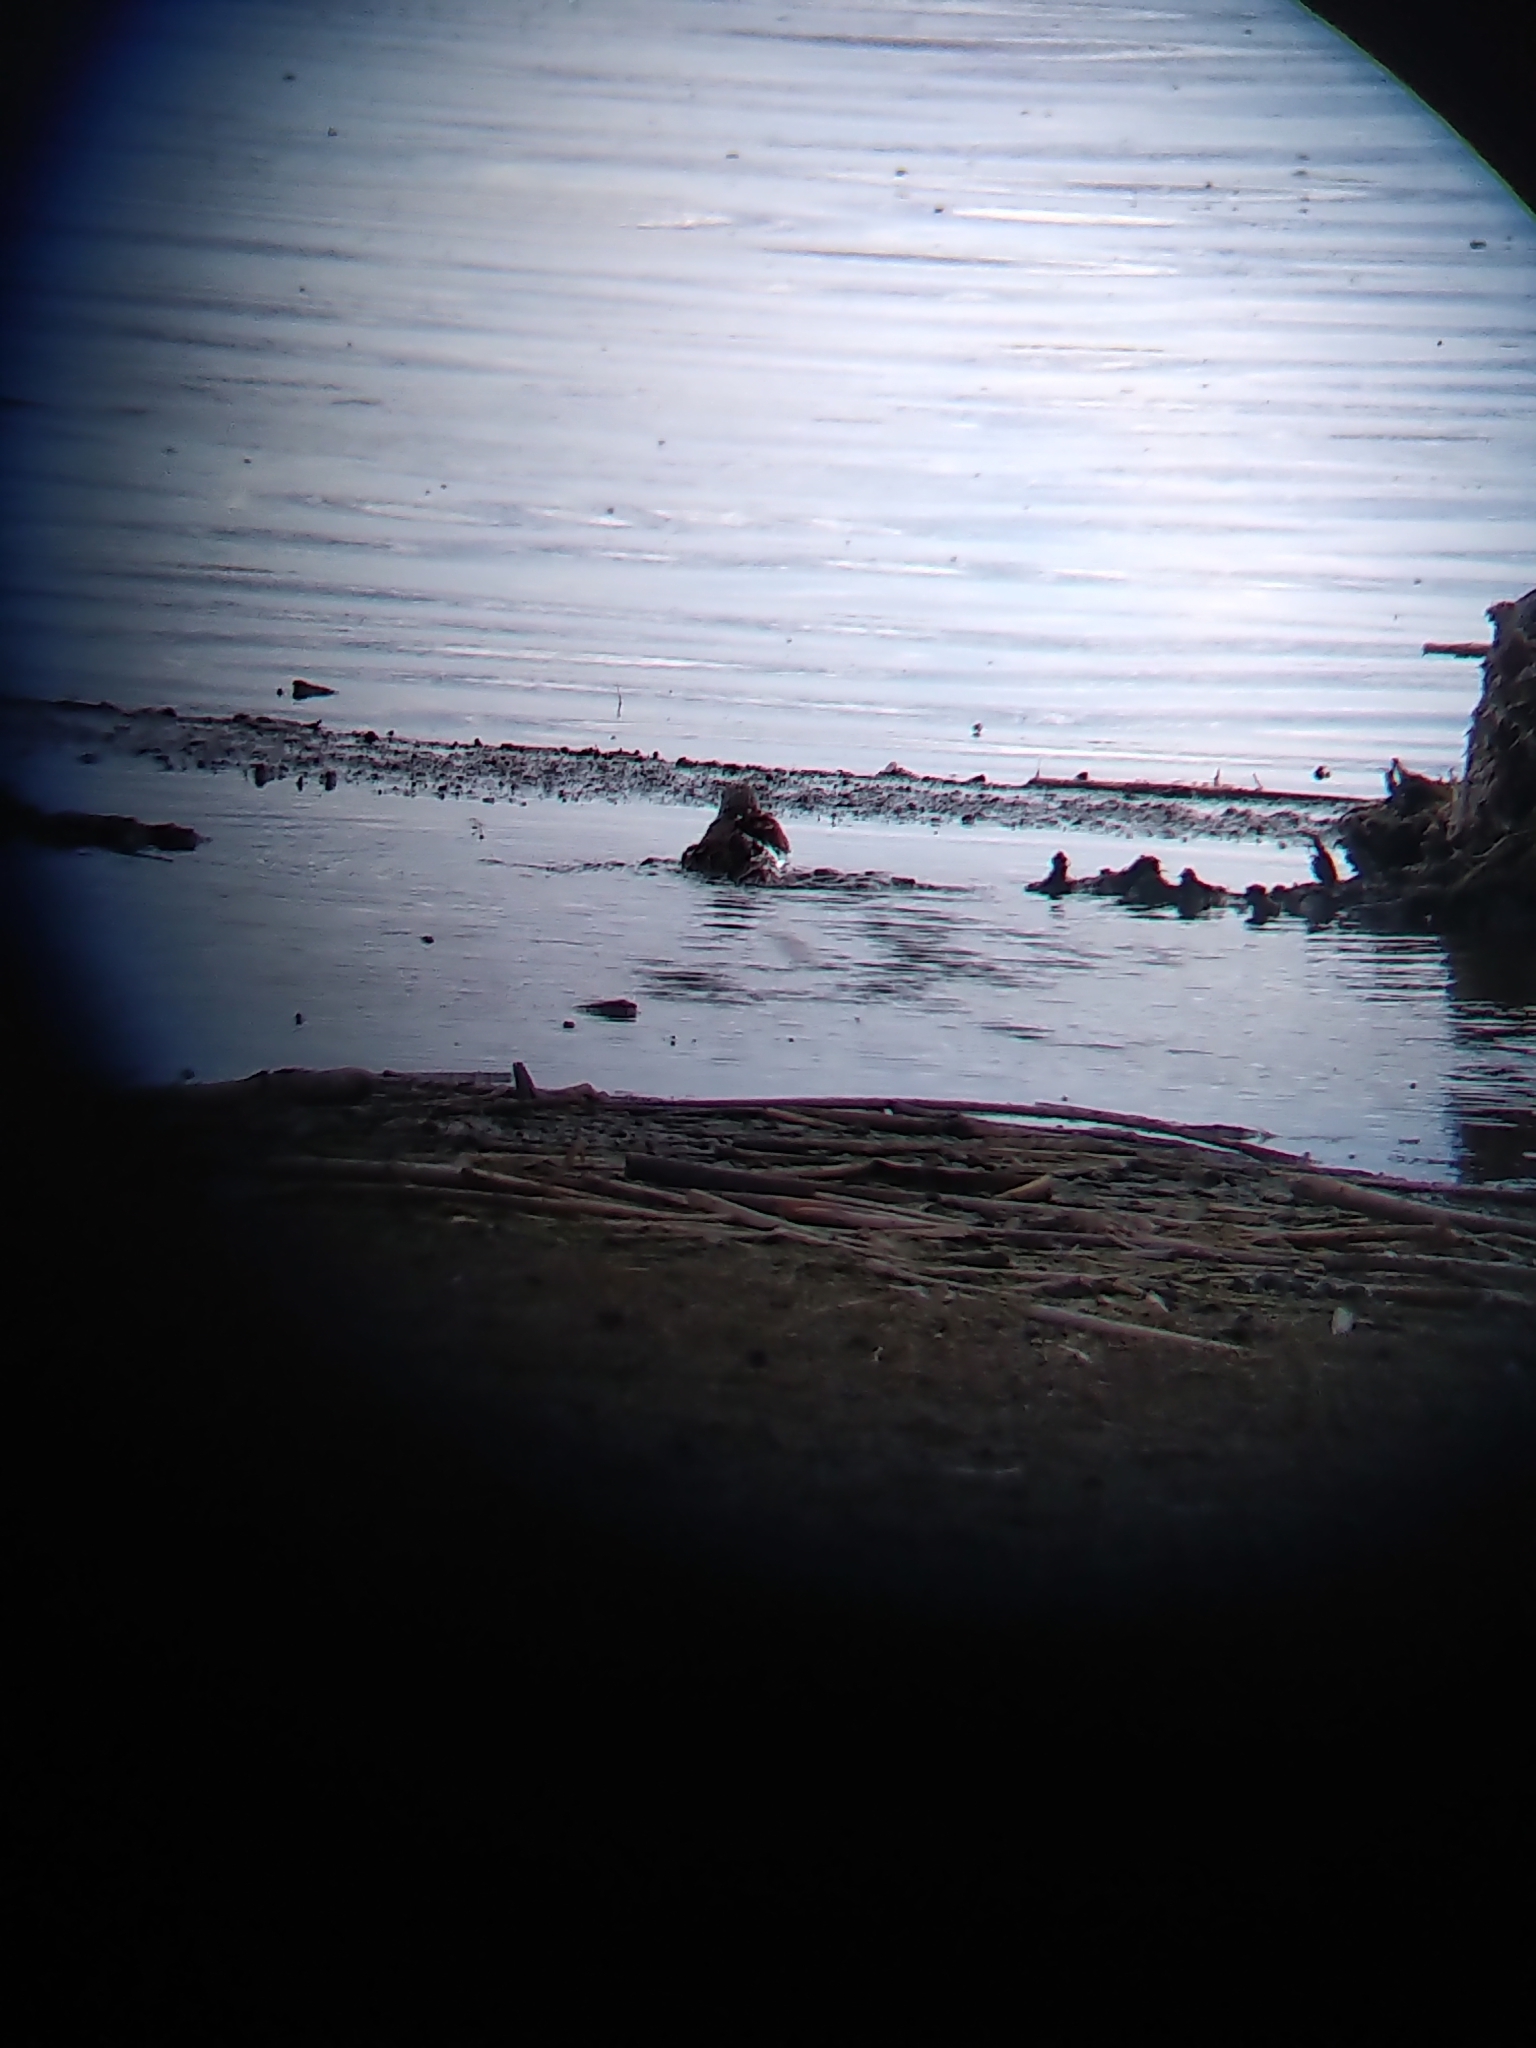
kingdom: Animalia
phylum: Chordata
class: Aves
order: Charadriiformes
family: Scolopacidae
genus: Calidris
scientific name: Calidris alpina
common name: Dunlin
